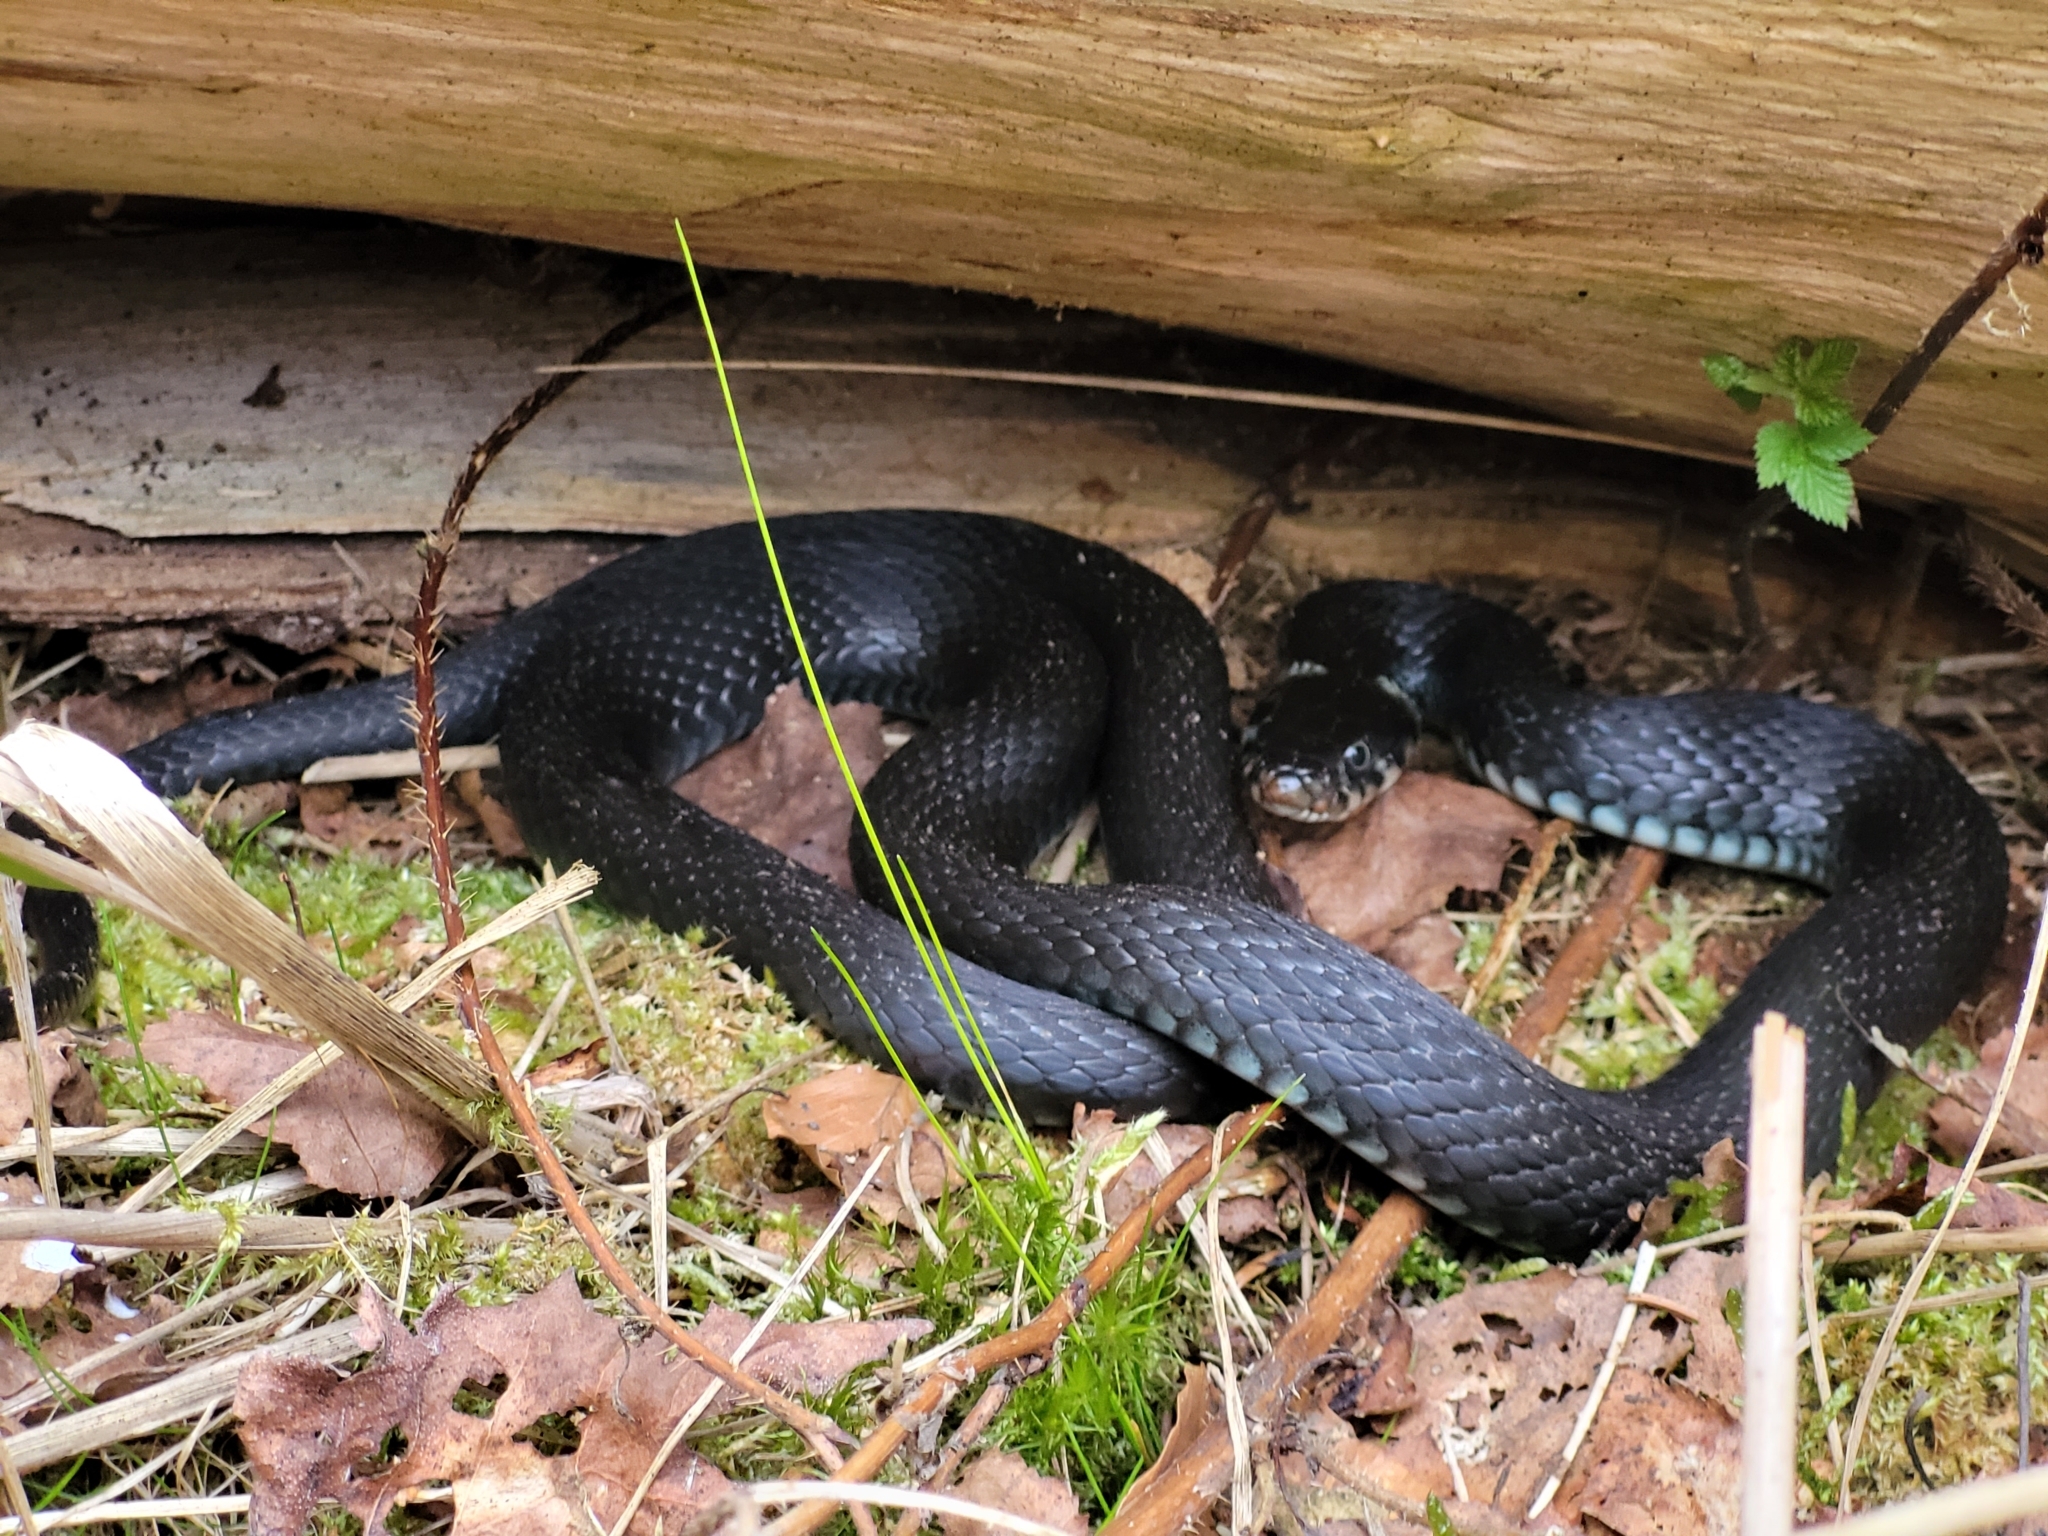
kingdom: Animalia
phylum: Chordata
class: Squamata
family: Colubridae
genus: Natrix
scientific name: Natrix natrix
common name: Grass snake
